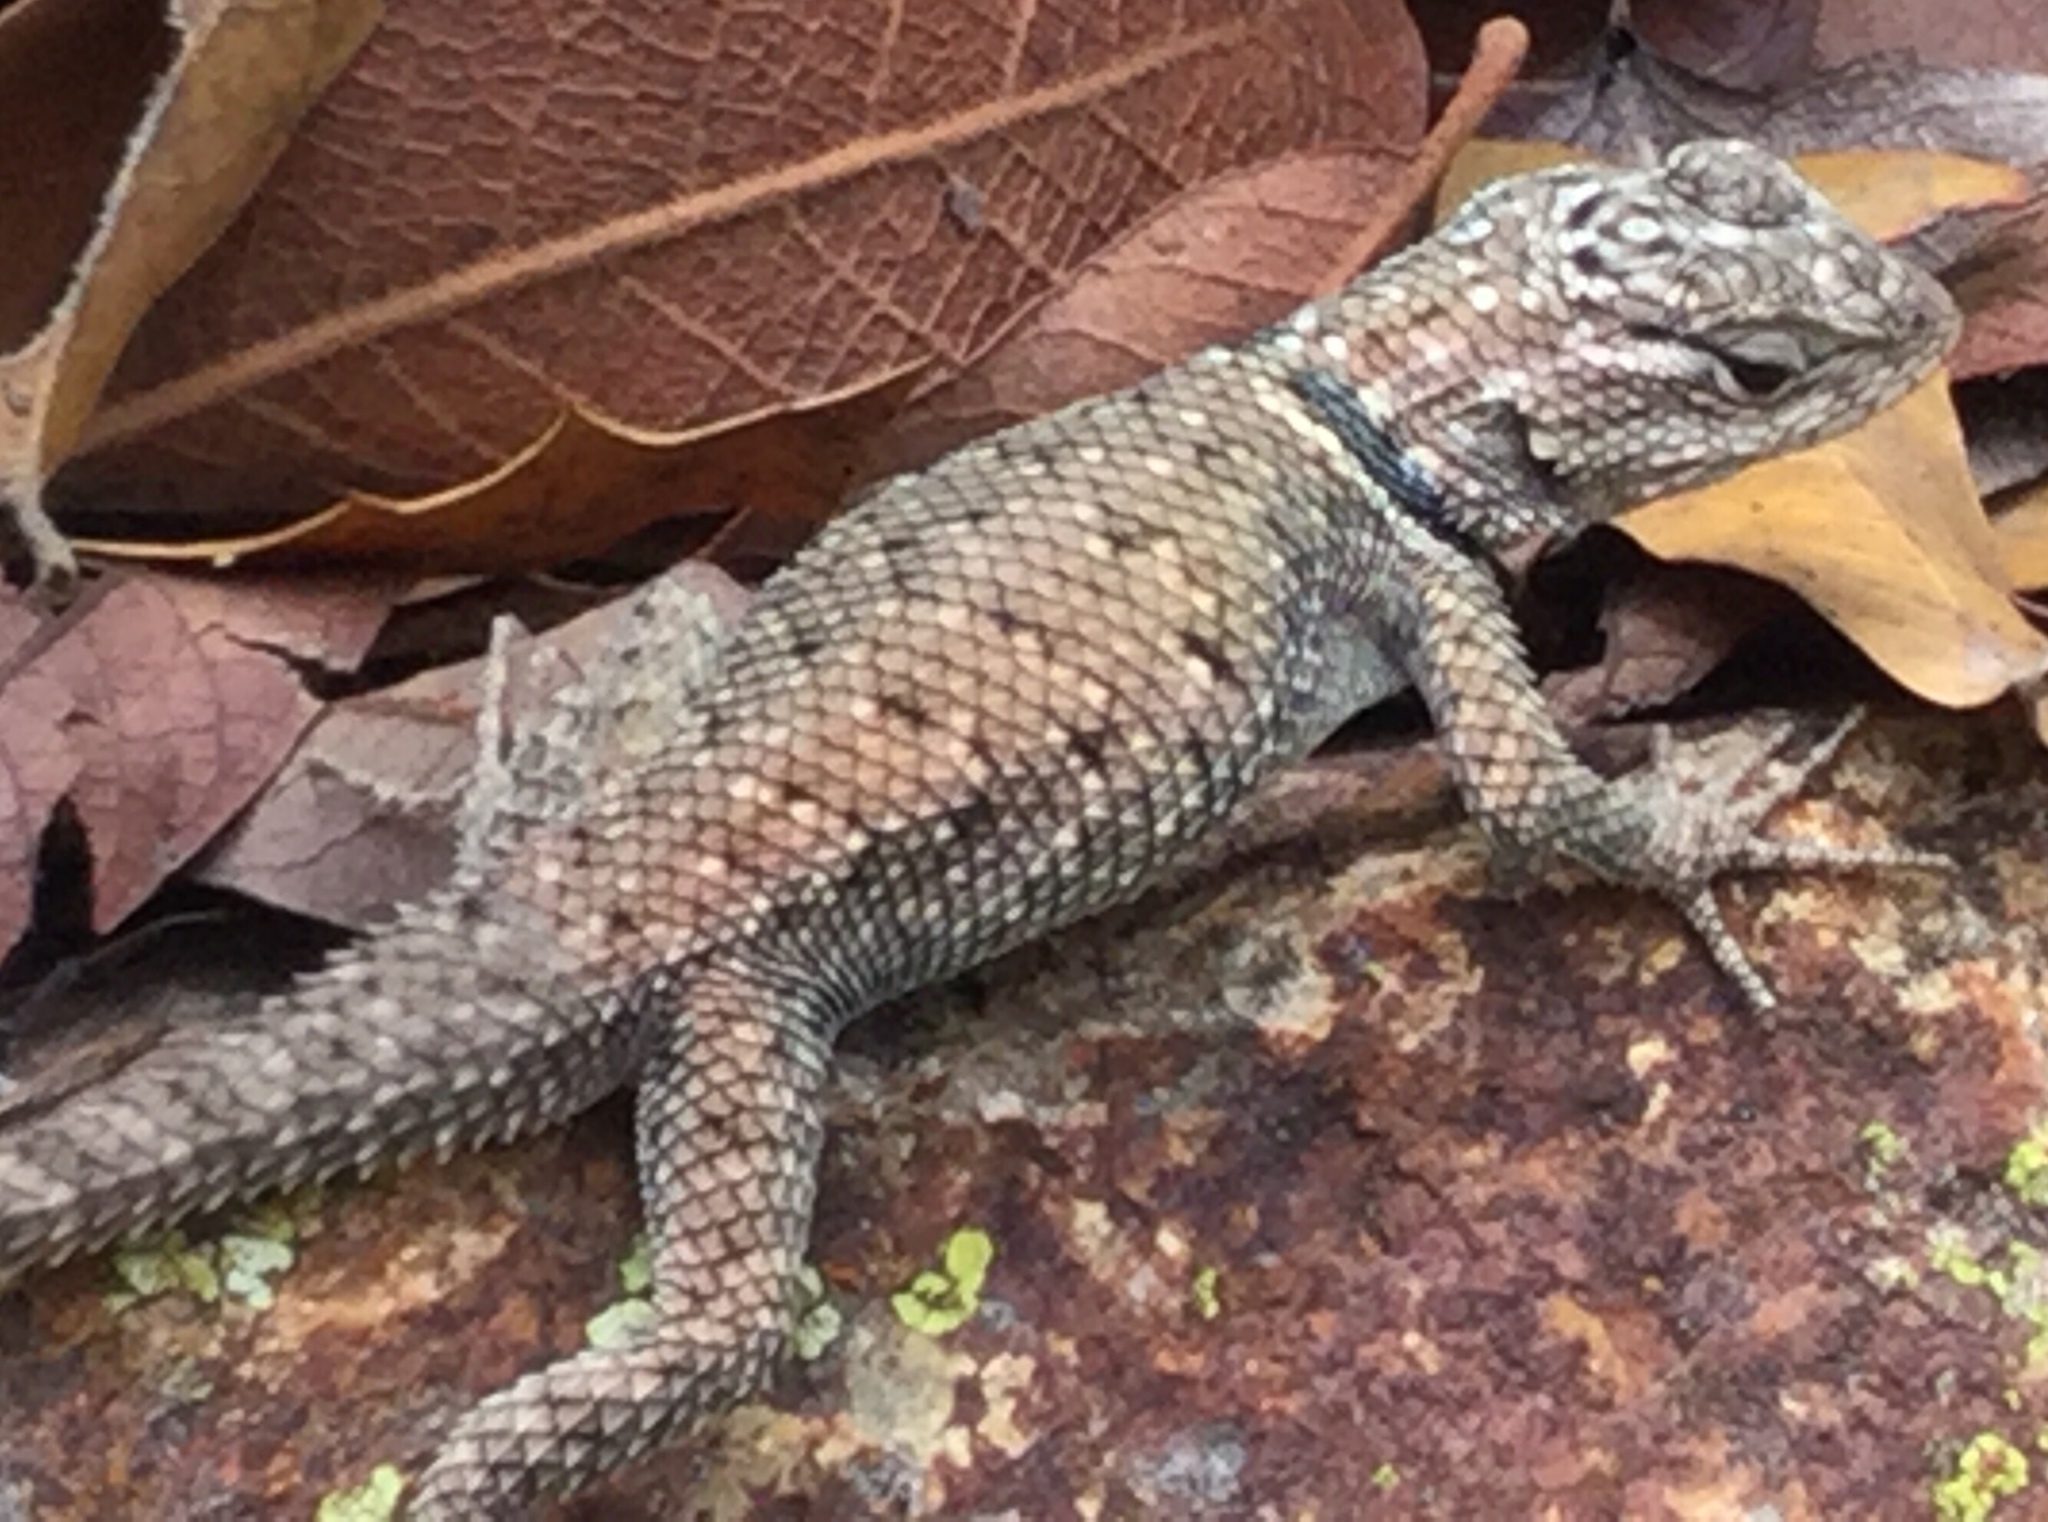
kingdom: Animalia
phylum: Chordata
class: Squamata
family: Phrynosomatidae
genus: Sceloporus
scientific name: Sceloporus jarrovii
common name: Yarrow's spiny lizard
